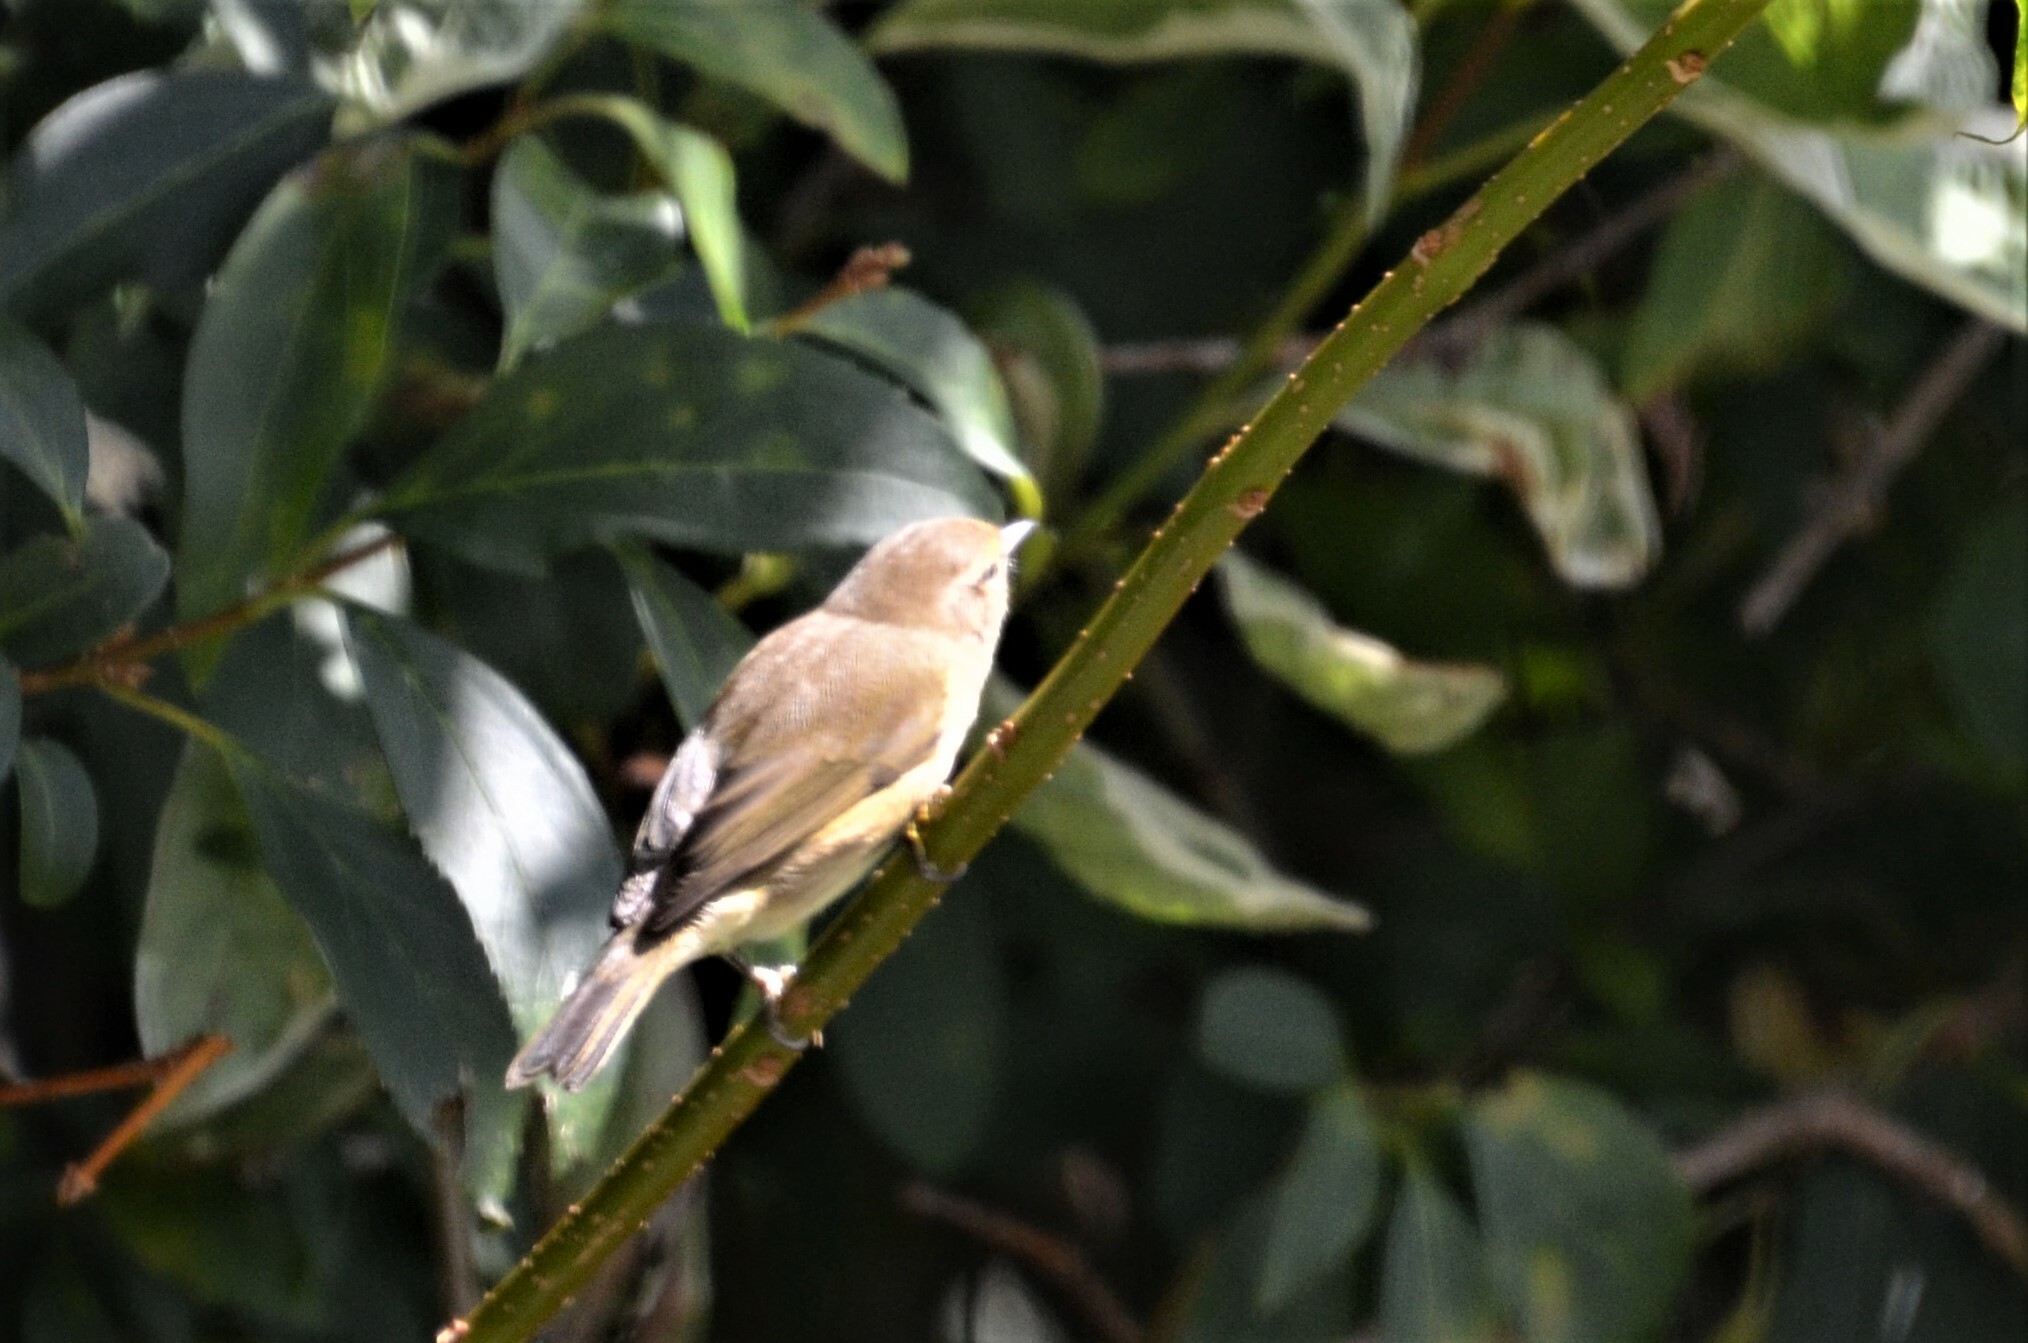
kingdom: Animalia
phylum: Chordata
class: Aves
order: Passeriformes
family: Phylloscopidae
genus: Phylloscopus
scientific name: Phylloscopus collybita
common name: Common chiffchaff
